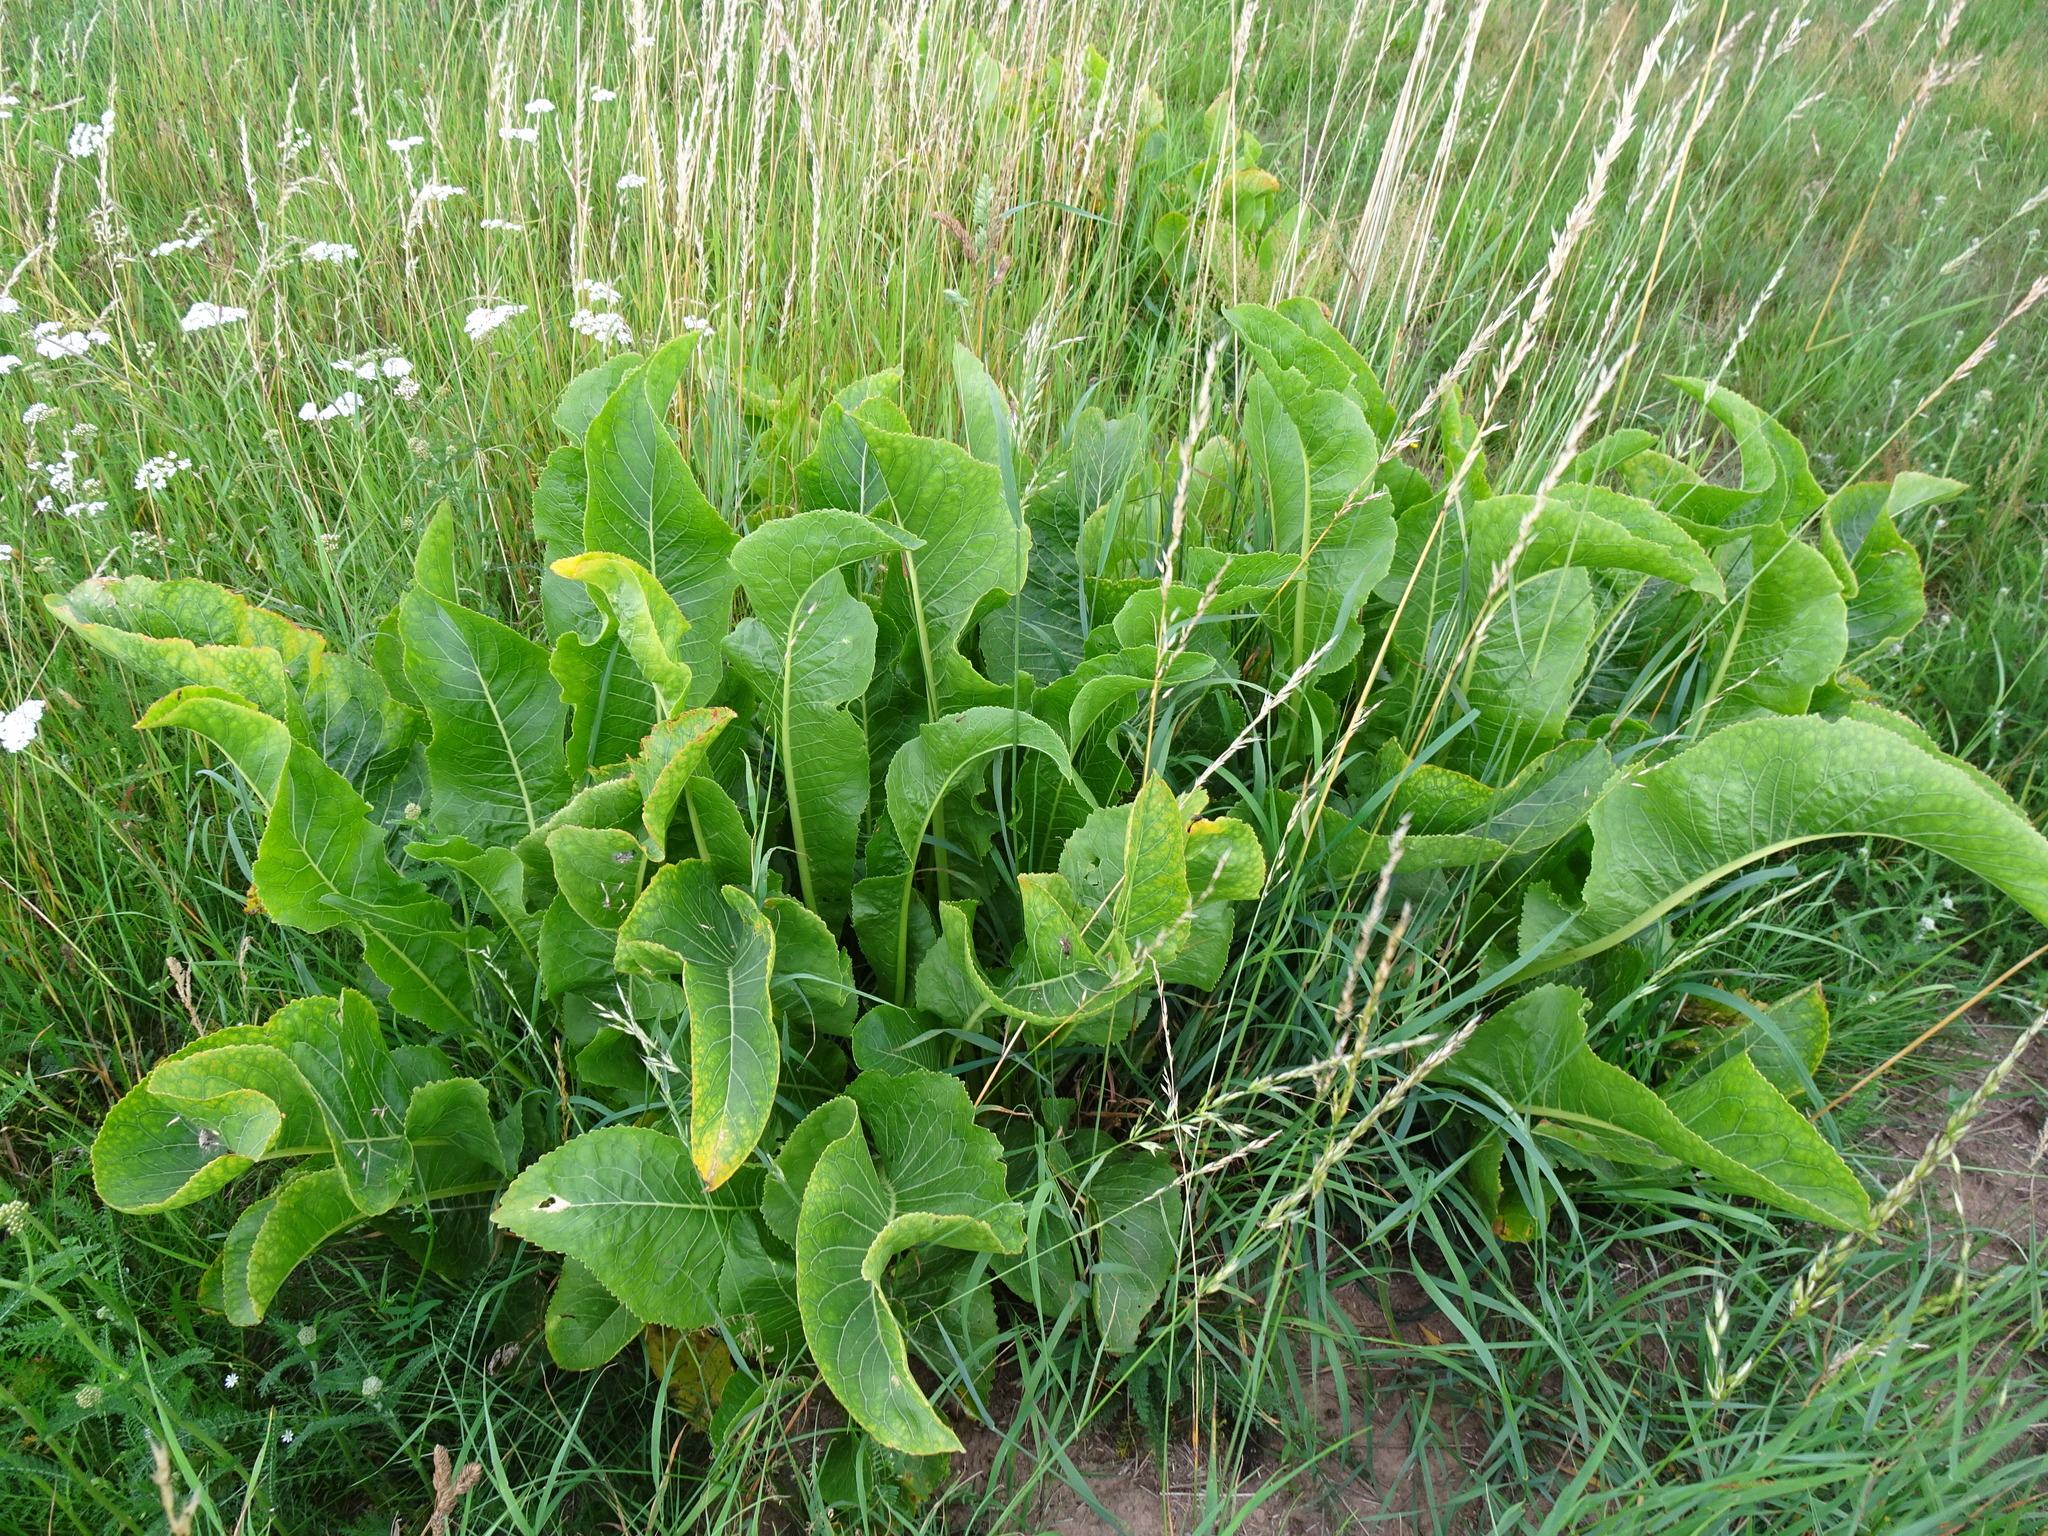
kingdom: Plantae
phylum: Tracheophyta
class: Magnoliopsida
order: Brassicales
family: Brassicaceae
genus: Armoracia
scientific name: Armoracia rusticana
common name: Horseradish
